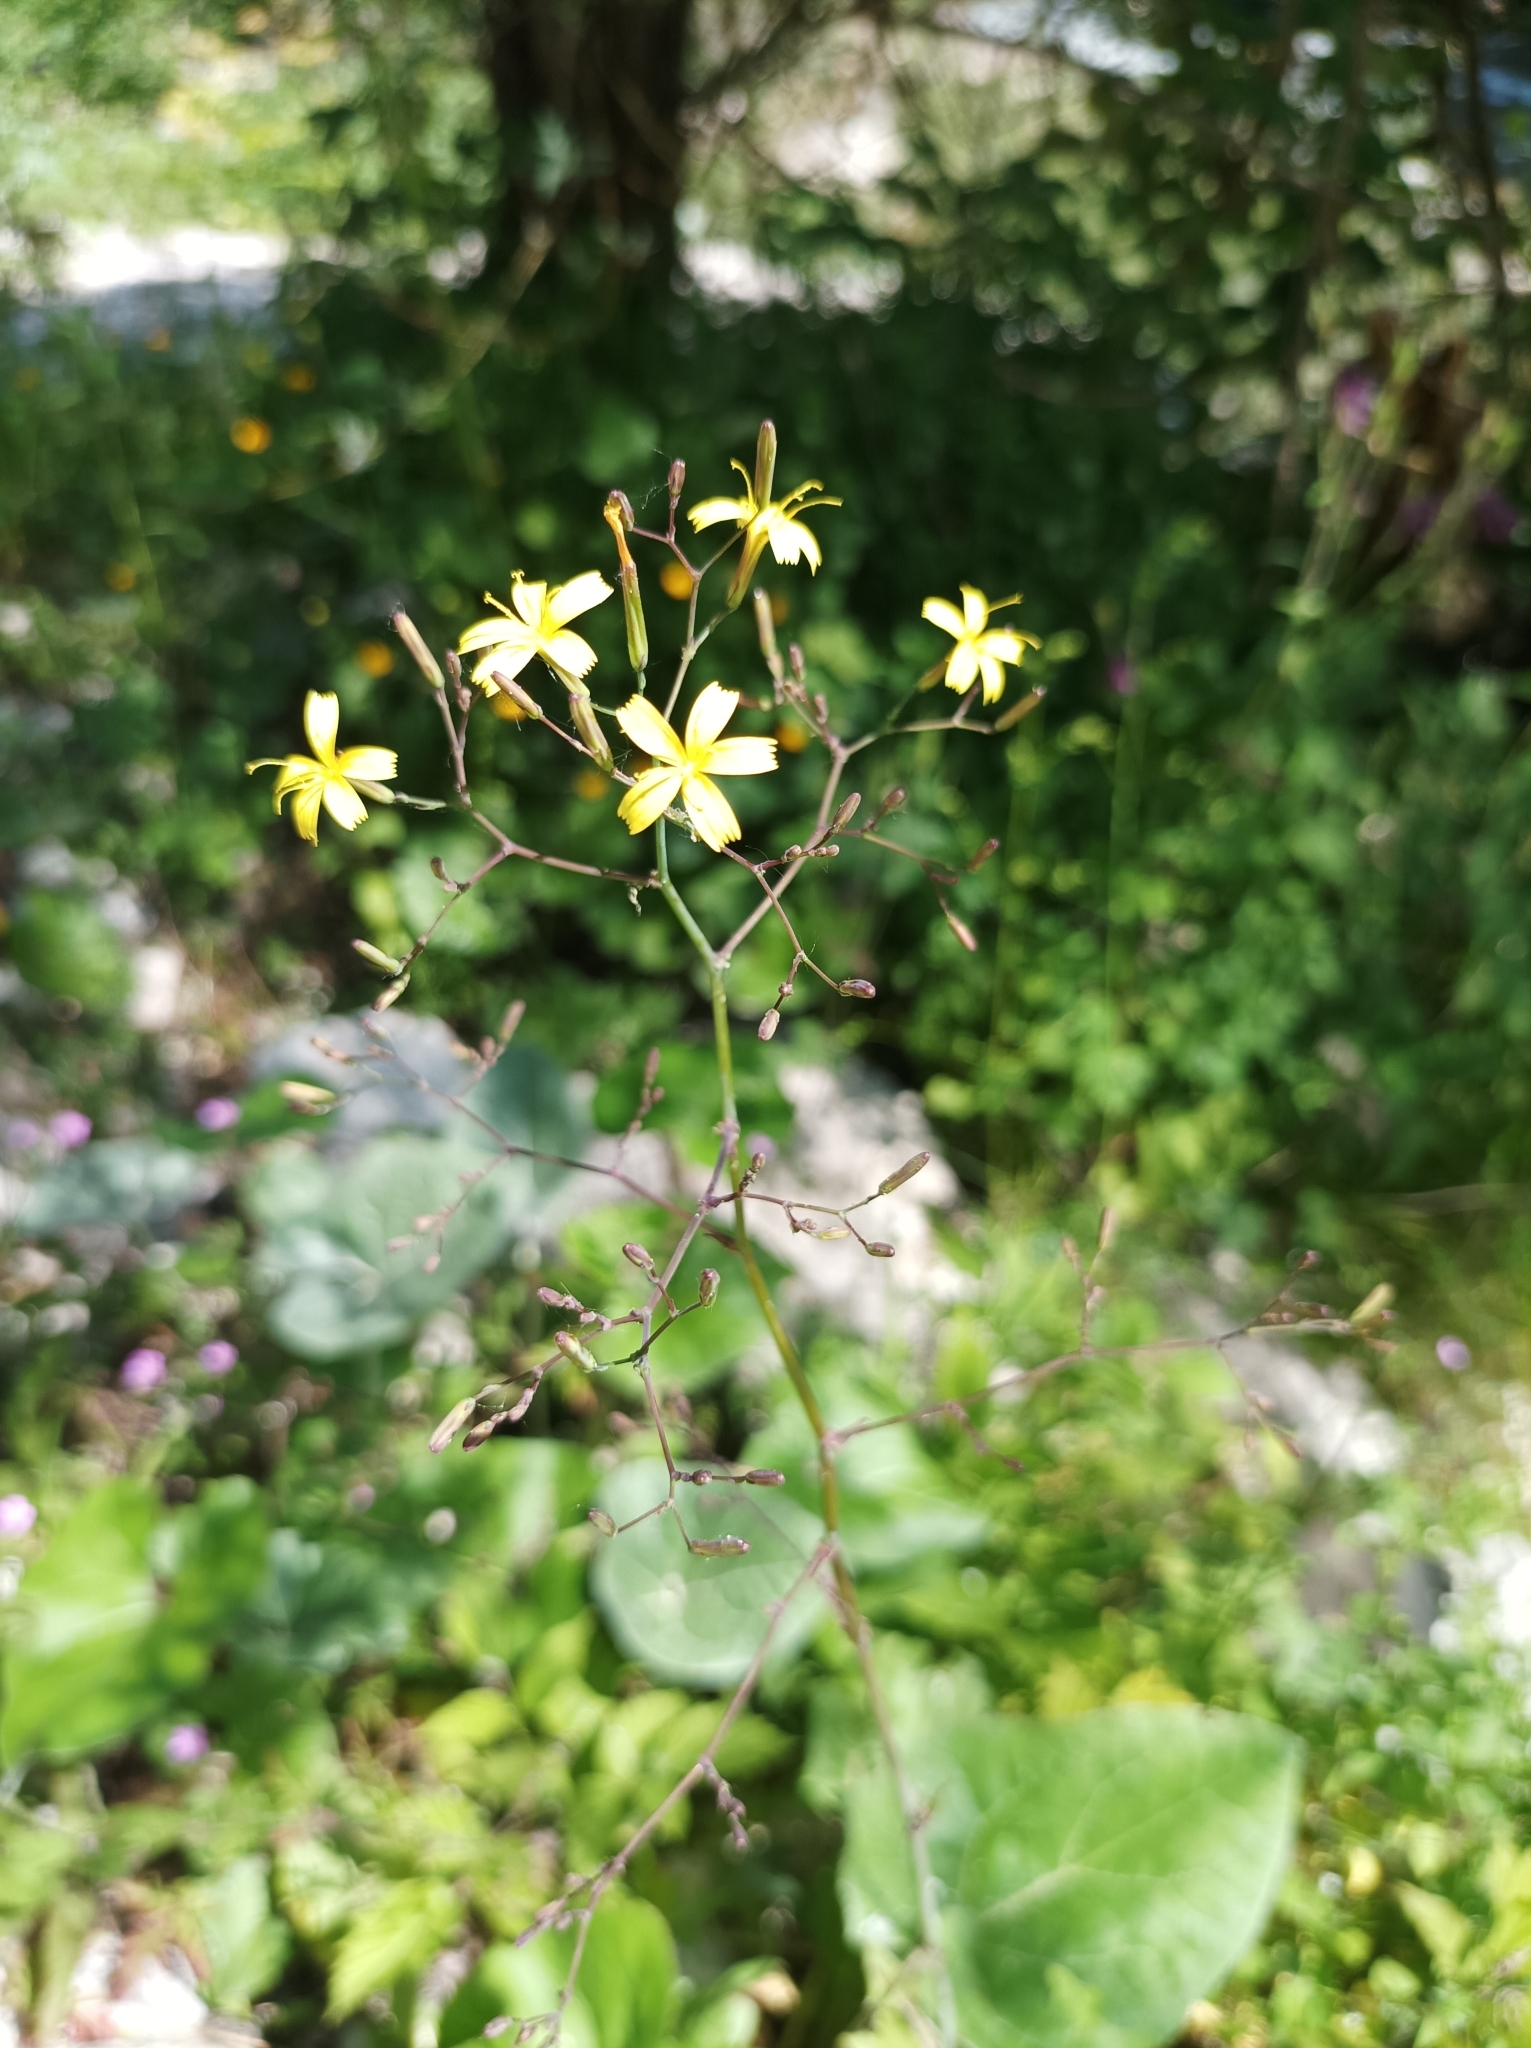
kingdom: Plantae
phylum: Tracheophyta
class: Magnoliopsida
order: Asterales
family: Asteraceae
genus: Mycelis
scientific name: Mycelis muralis
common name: Wall lettuce
